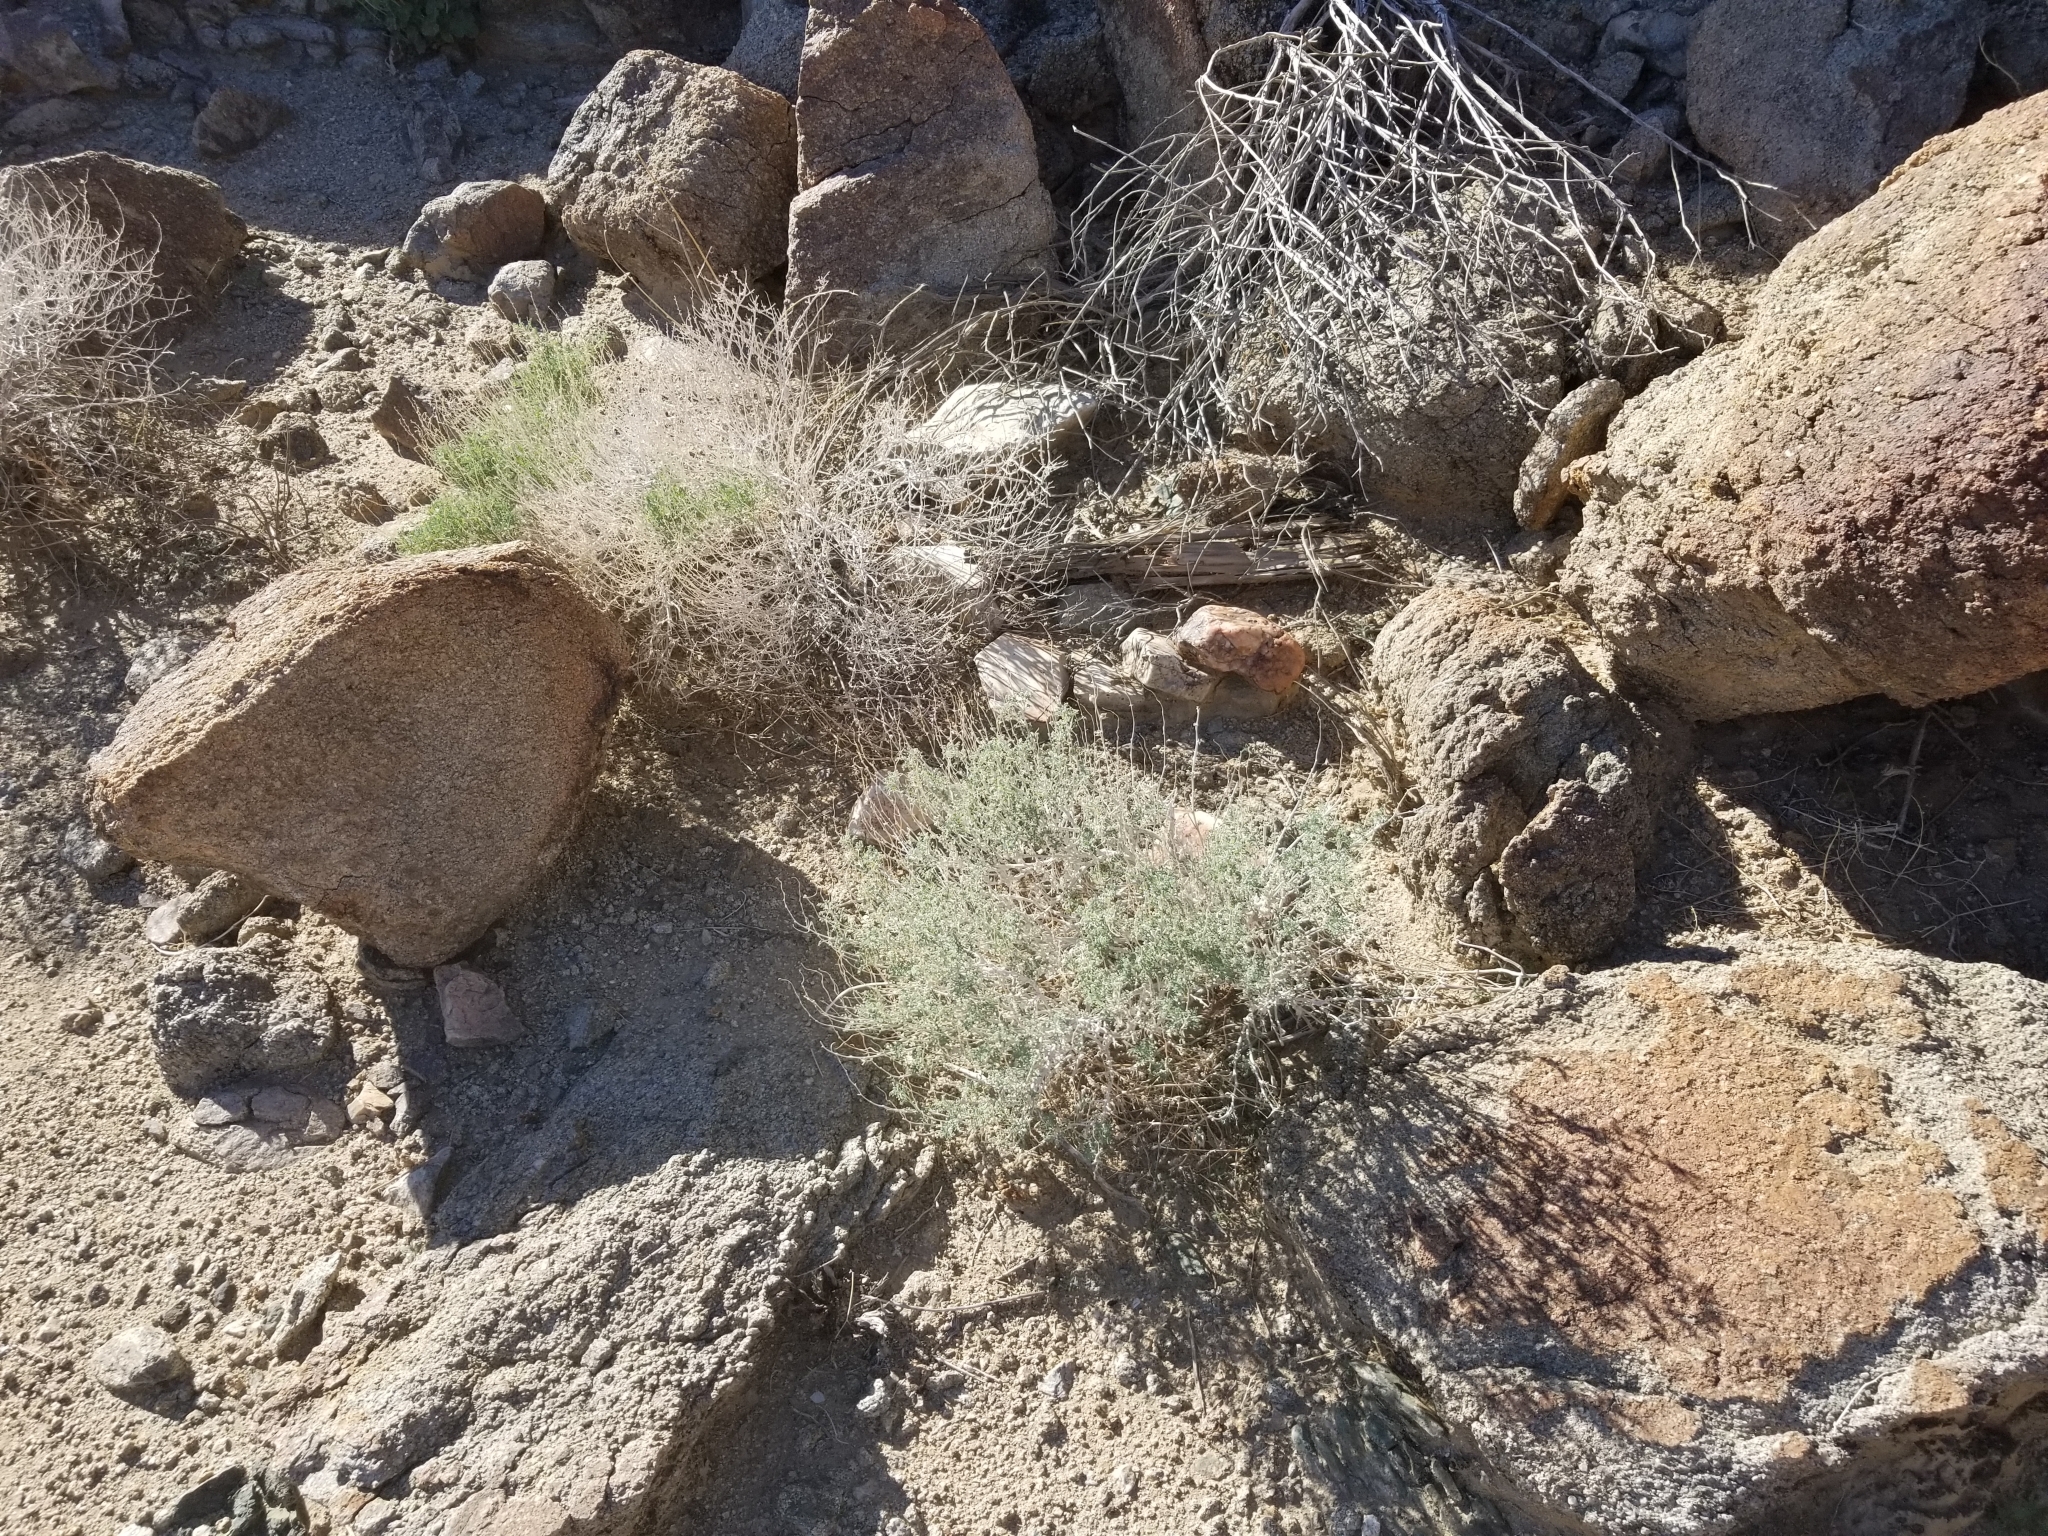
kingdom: Plantae
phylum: Tracheophyta
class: Magnoliopsida
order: Asterales
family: Asteraceae
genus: Ambrosia
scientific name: Ambrosia dumosa
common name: Bur-sage
